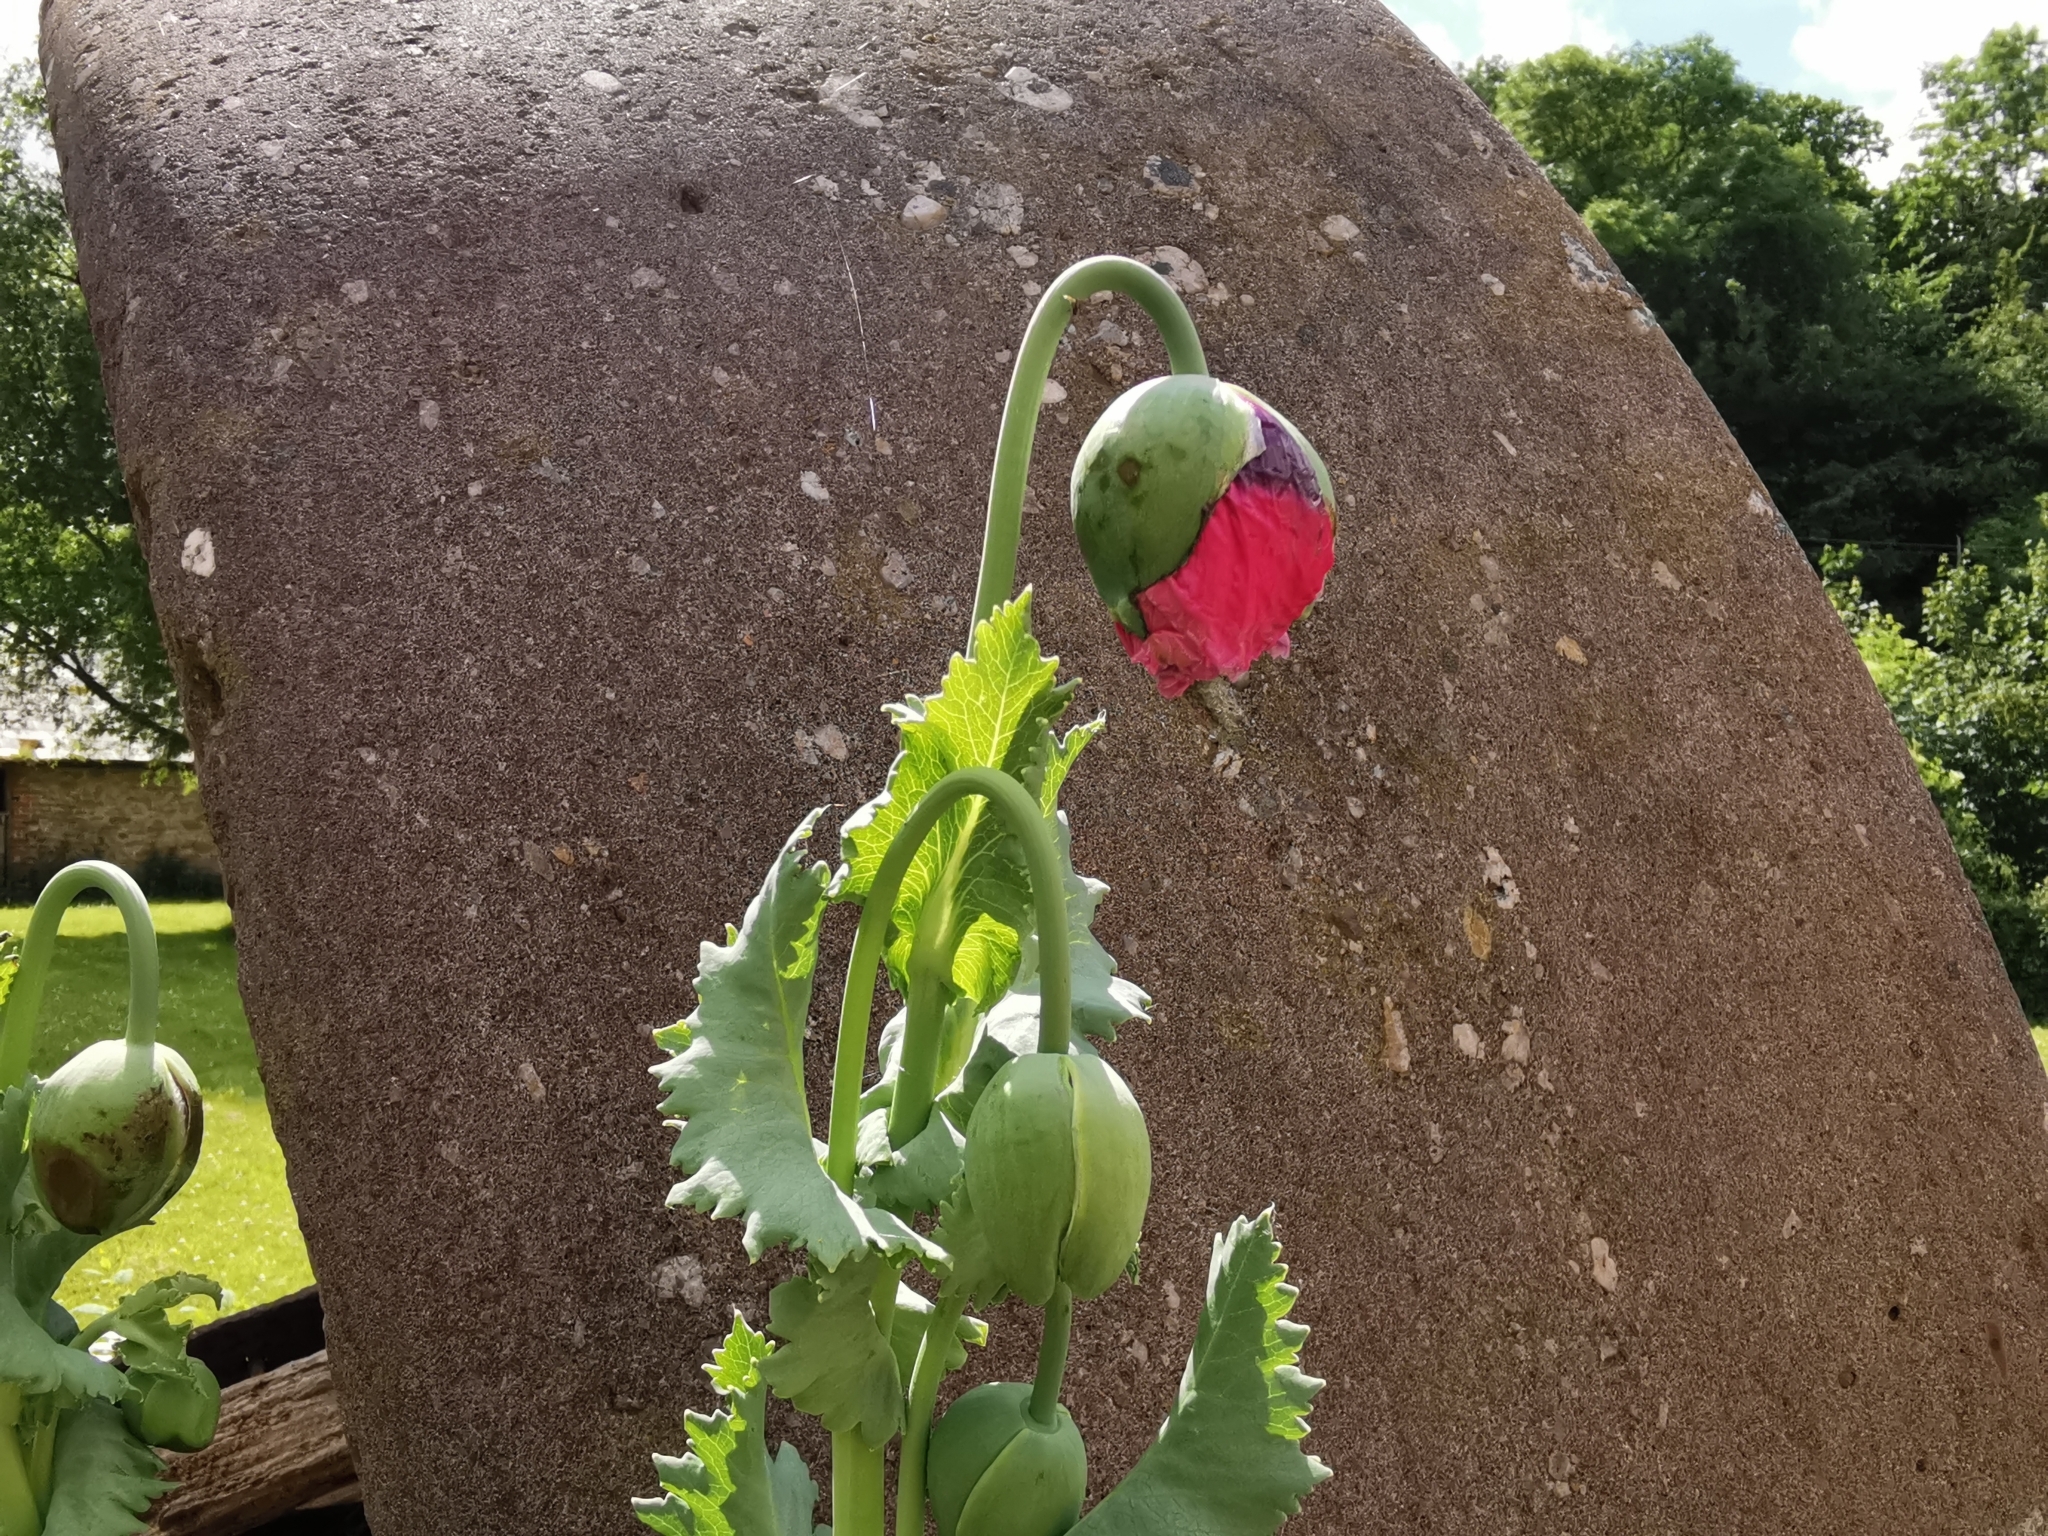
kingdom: Plantae
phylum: Tracheophyta
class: Magnoliopsida
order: Ranunculales
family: Papaveraceae
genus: Papaver
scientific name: Papaver somniferum
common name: Opium poppy
